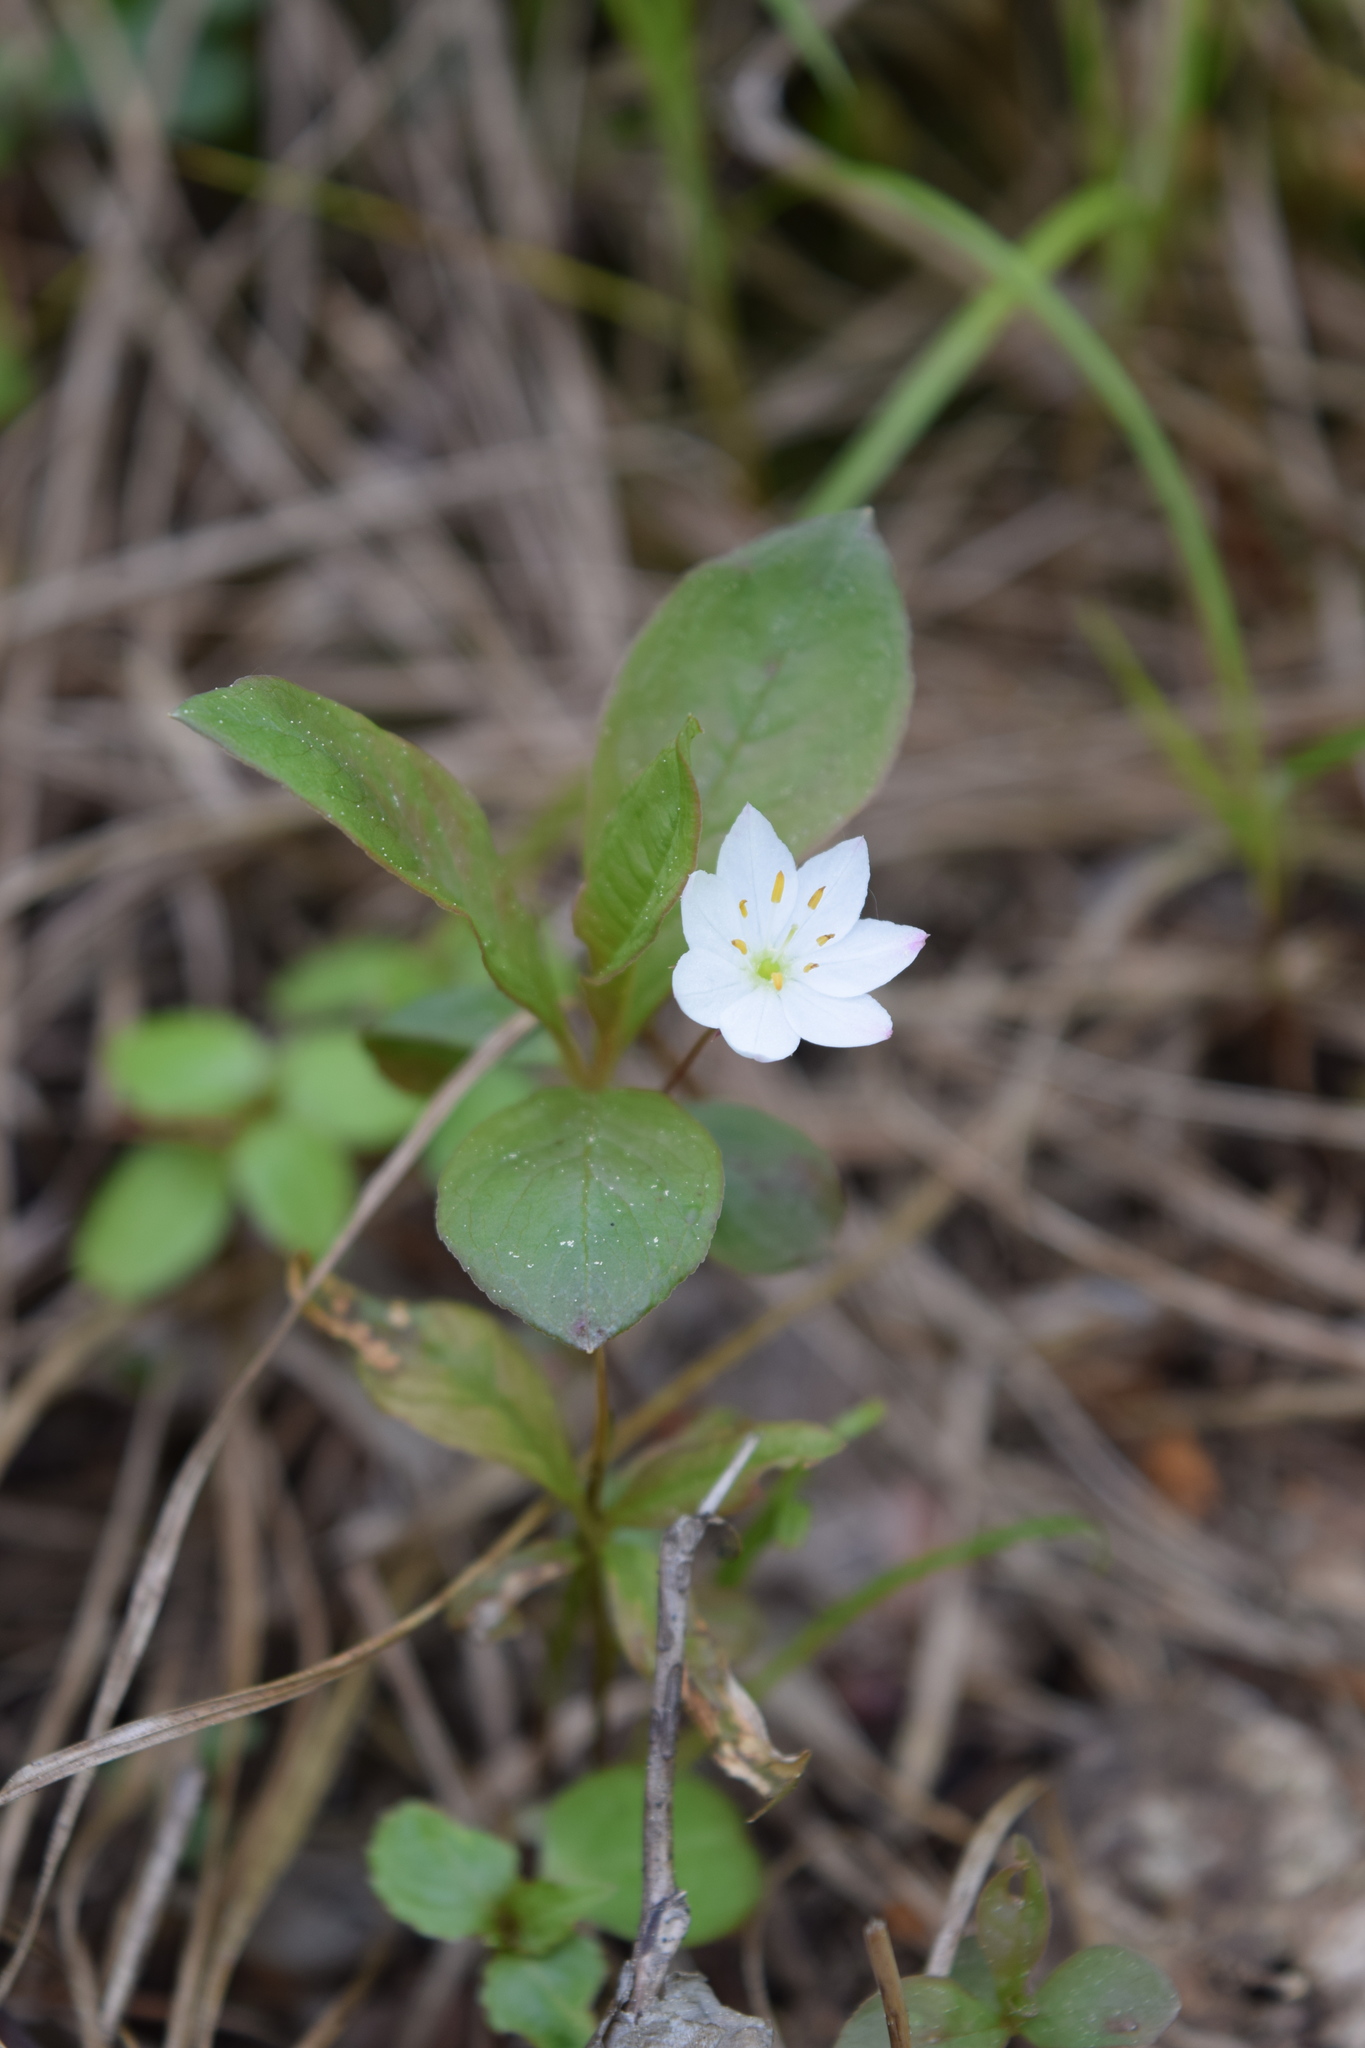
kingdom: Plantae
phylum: Tracheophyta
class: Magnoliopsida
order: Ericales
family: Primulaceae
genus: Lysimachia
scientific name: Lysimachia europaea
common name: Arctic starflower
